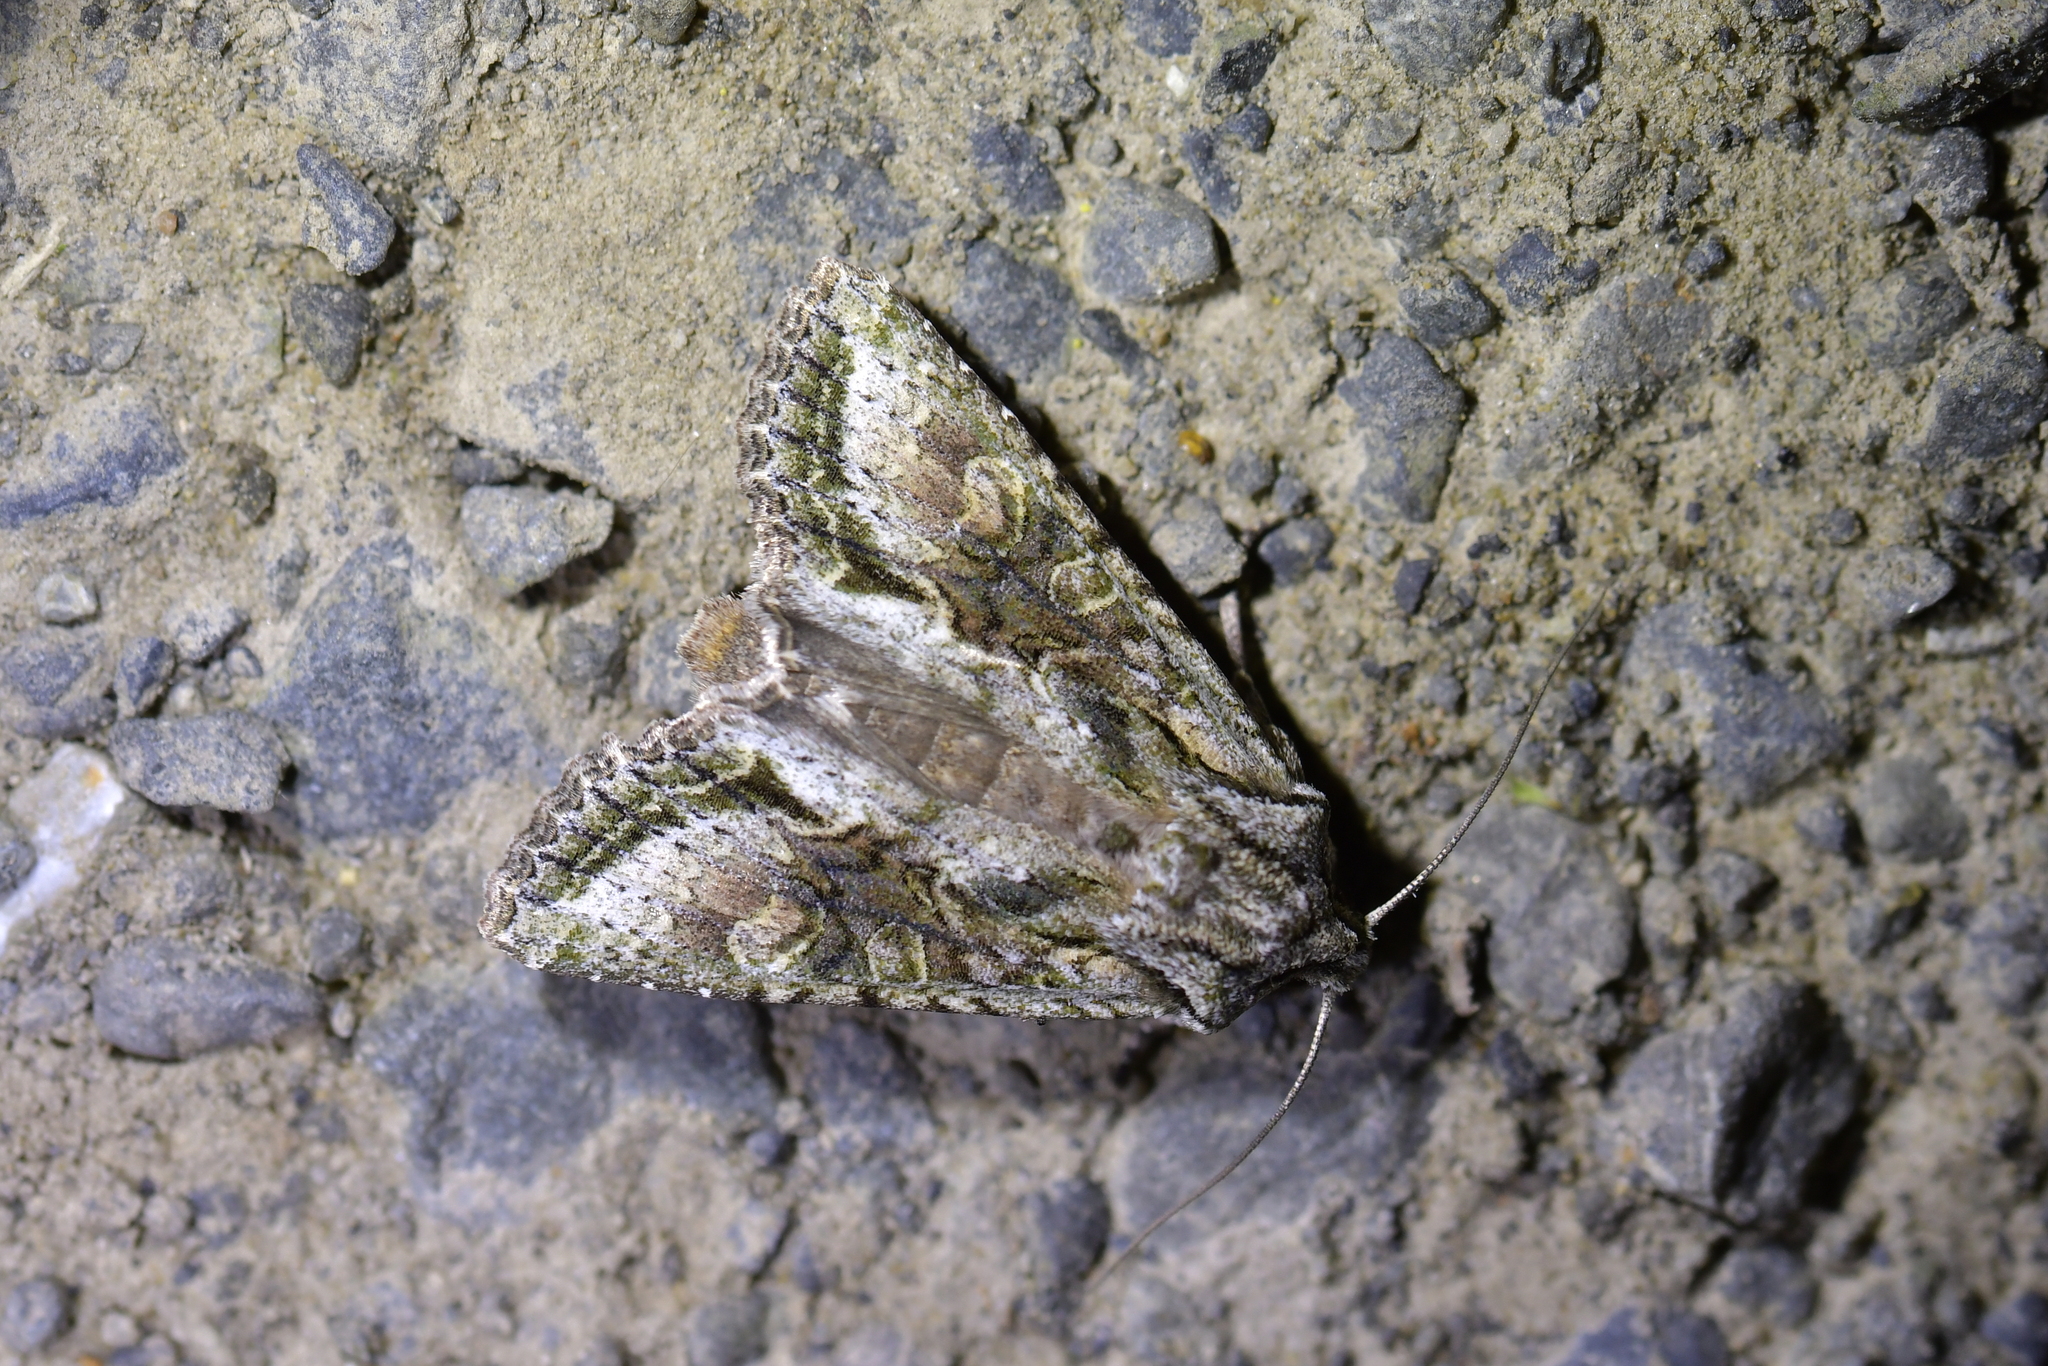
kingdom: Animalia
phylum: Arthropoda
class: Insecta
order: Lepidoptera
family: Noctuidae
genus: Ichneutica
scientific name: Ichneutica mutans
